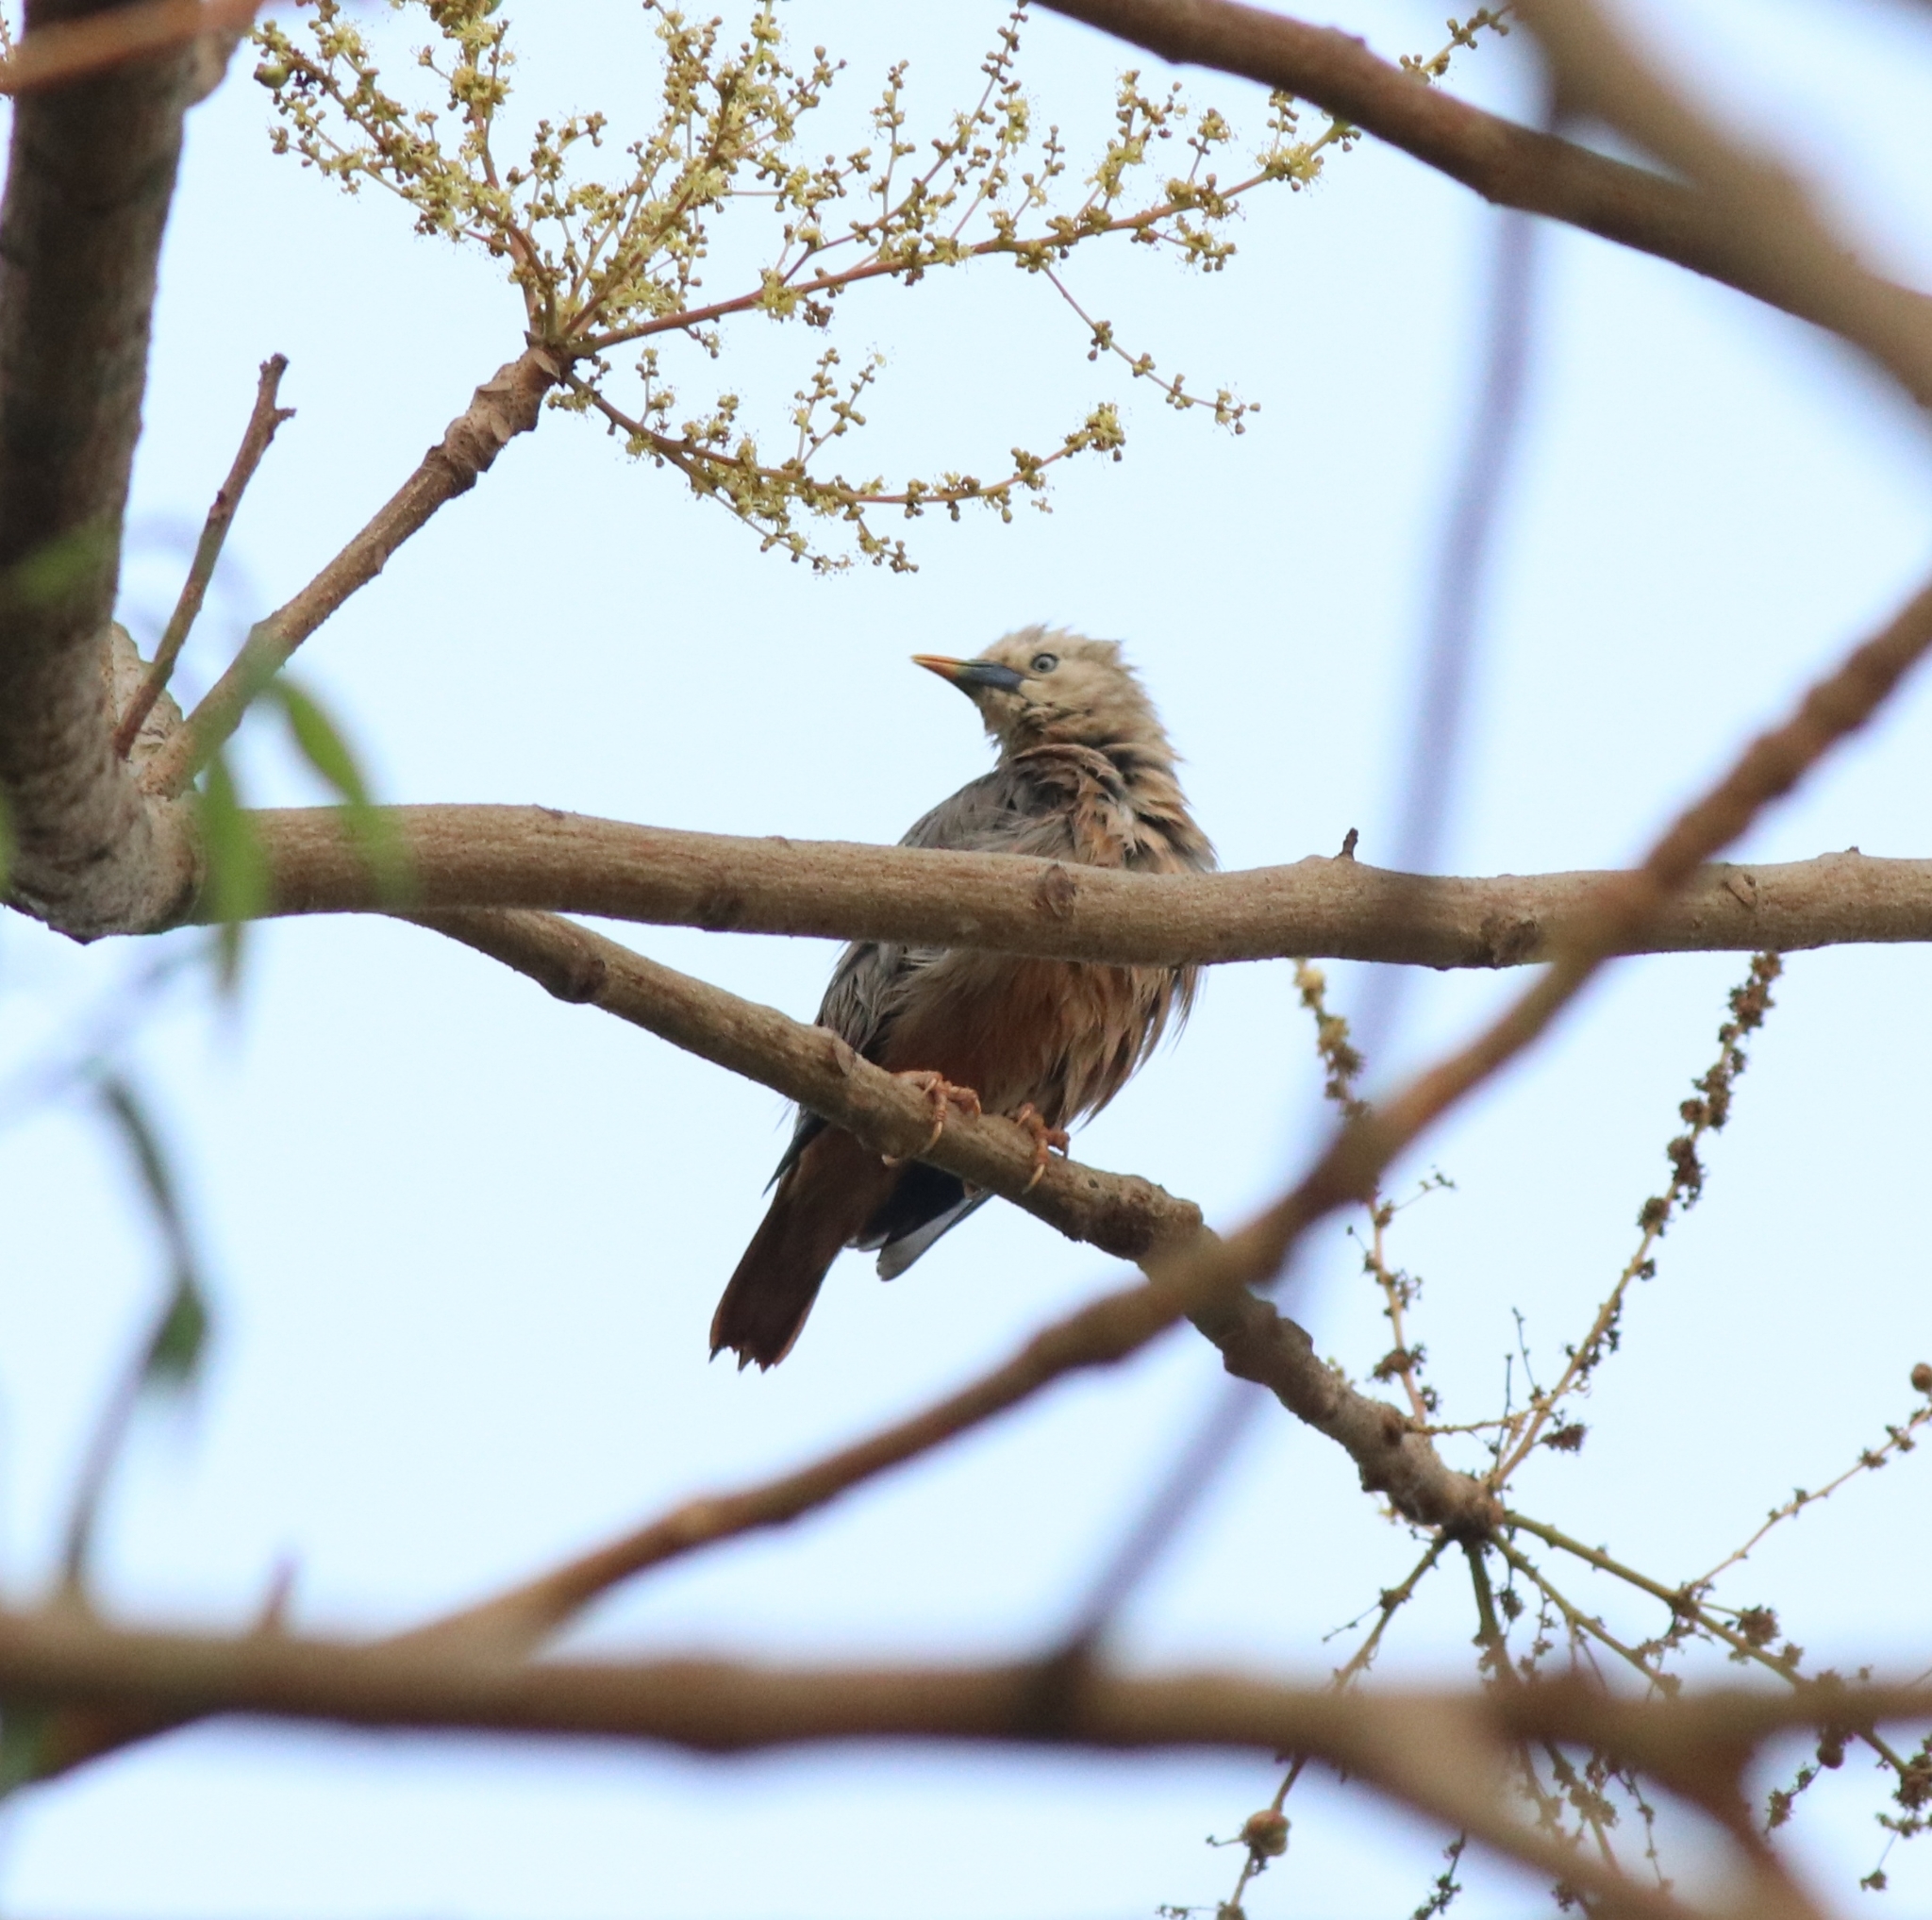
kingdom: Animalia
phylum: Chordata
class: Aves
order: Passeriformes
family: Sturnidae
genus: Sturnia
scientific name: Sturnia blythii
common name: Malabar starling
